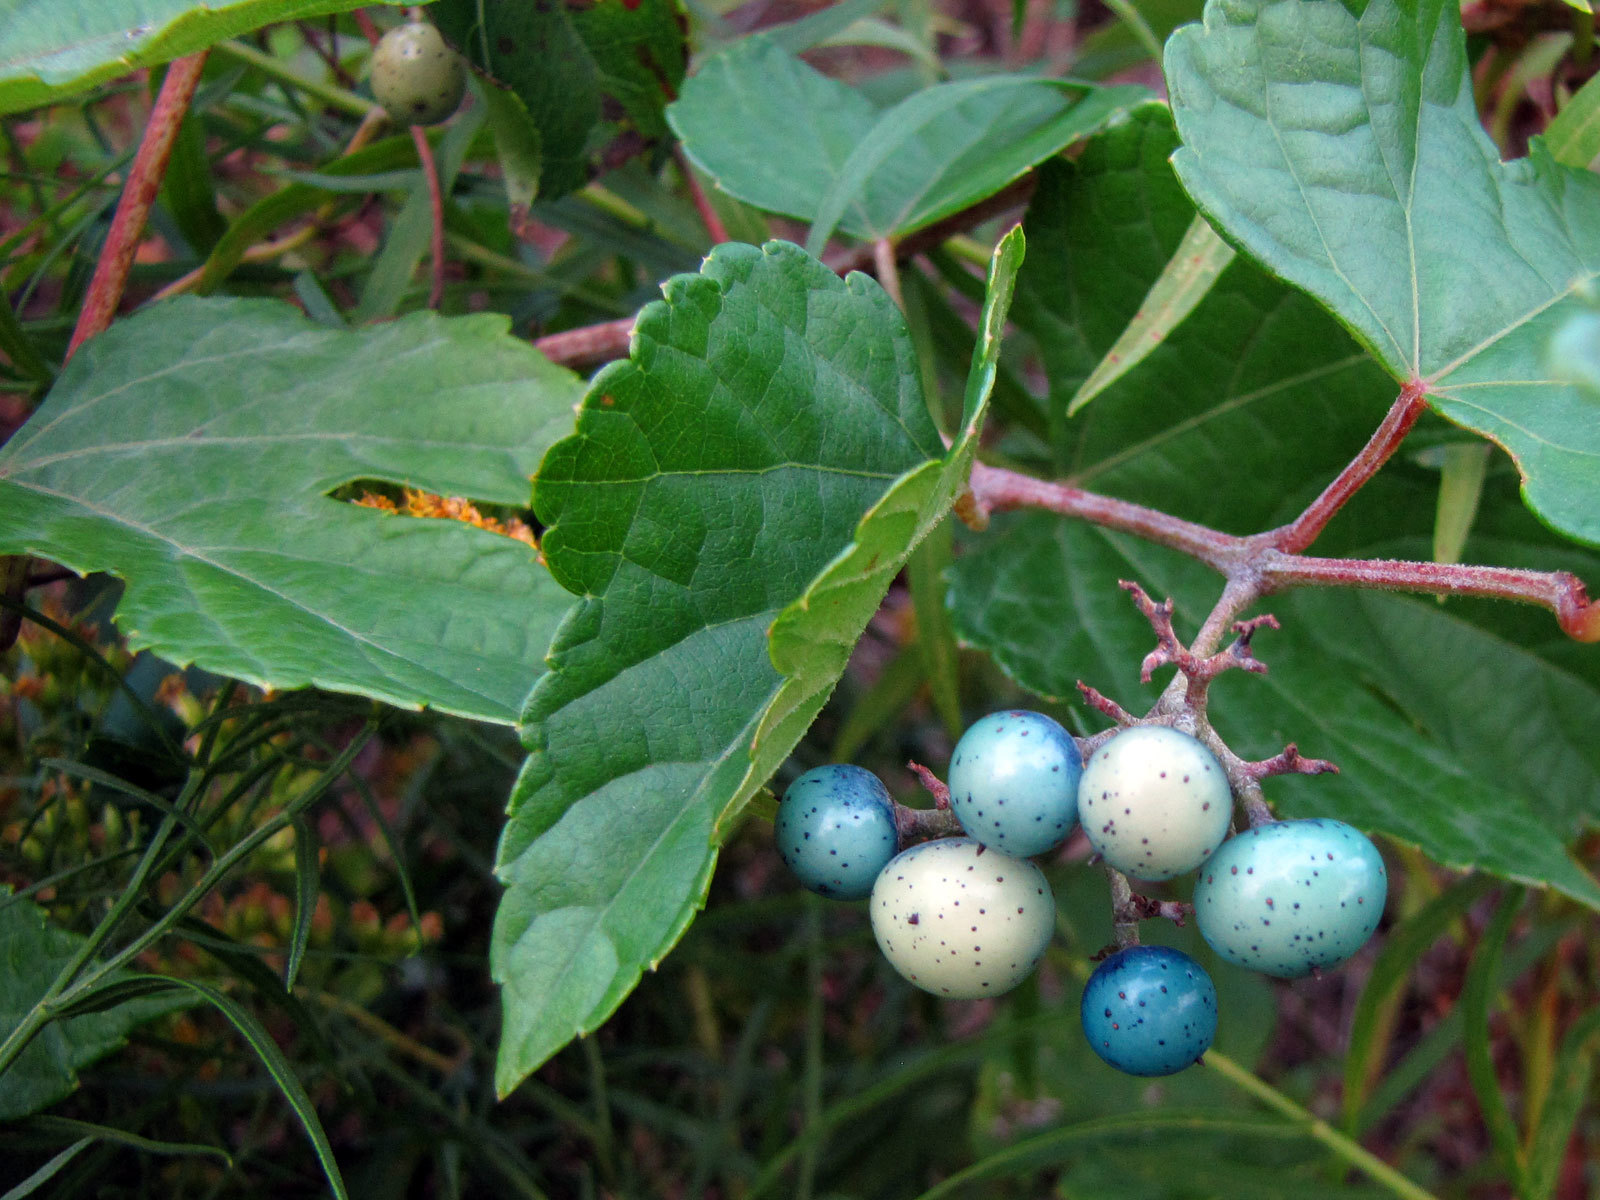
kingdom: Plantae
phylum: Tracheophyta
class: Magnoliopsida
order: Vitales
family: Vitaceae
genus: Ampelopsis
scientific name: Ampelopsis glandulosa
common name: Amur peppervine
